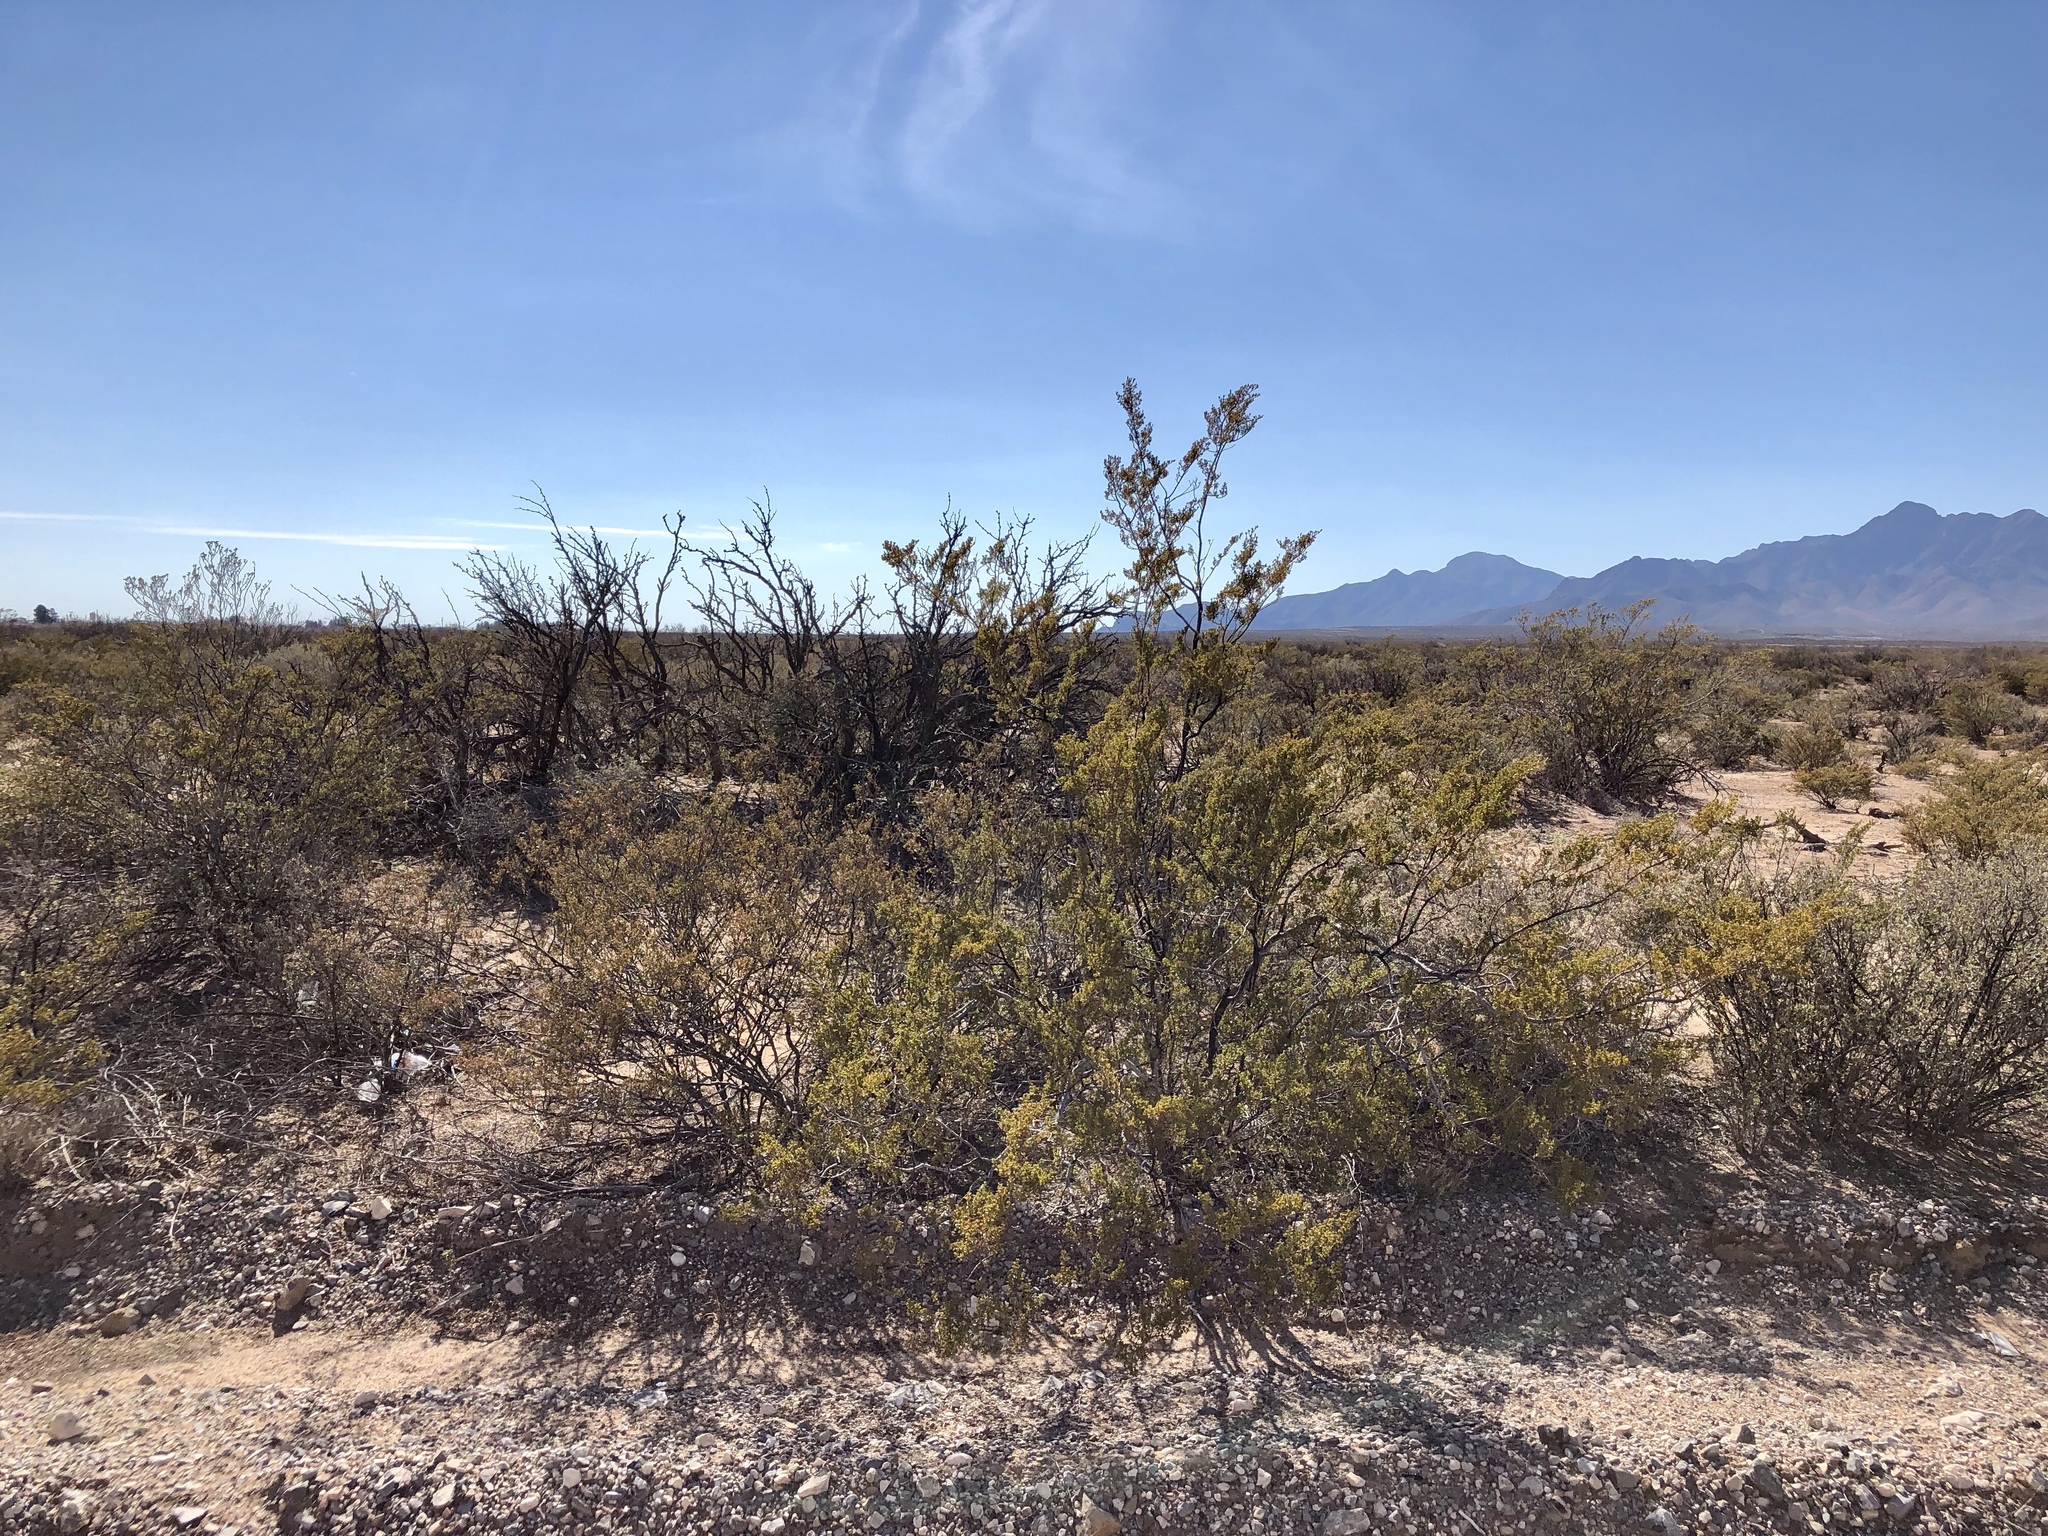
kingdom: Plantae
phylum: Tracheophyta
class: Magnoliopsida
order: Zygophyllales
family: Zygophyllaceae
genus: Larrea
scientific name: Larrea tridentata
